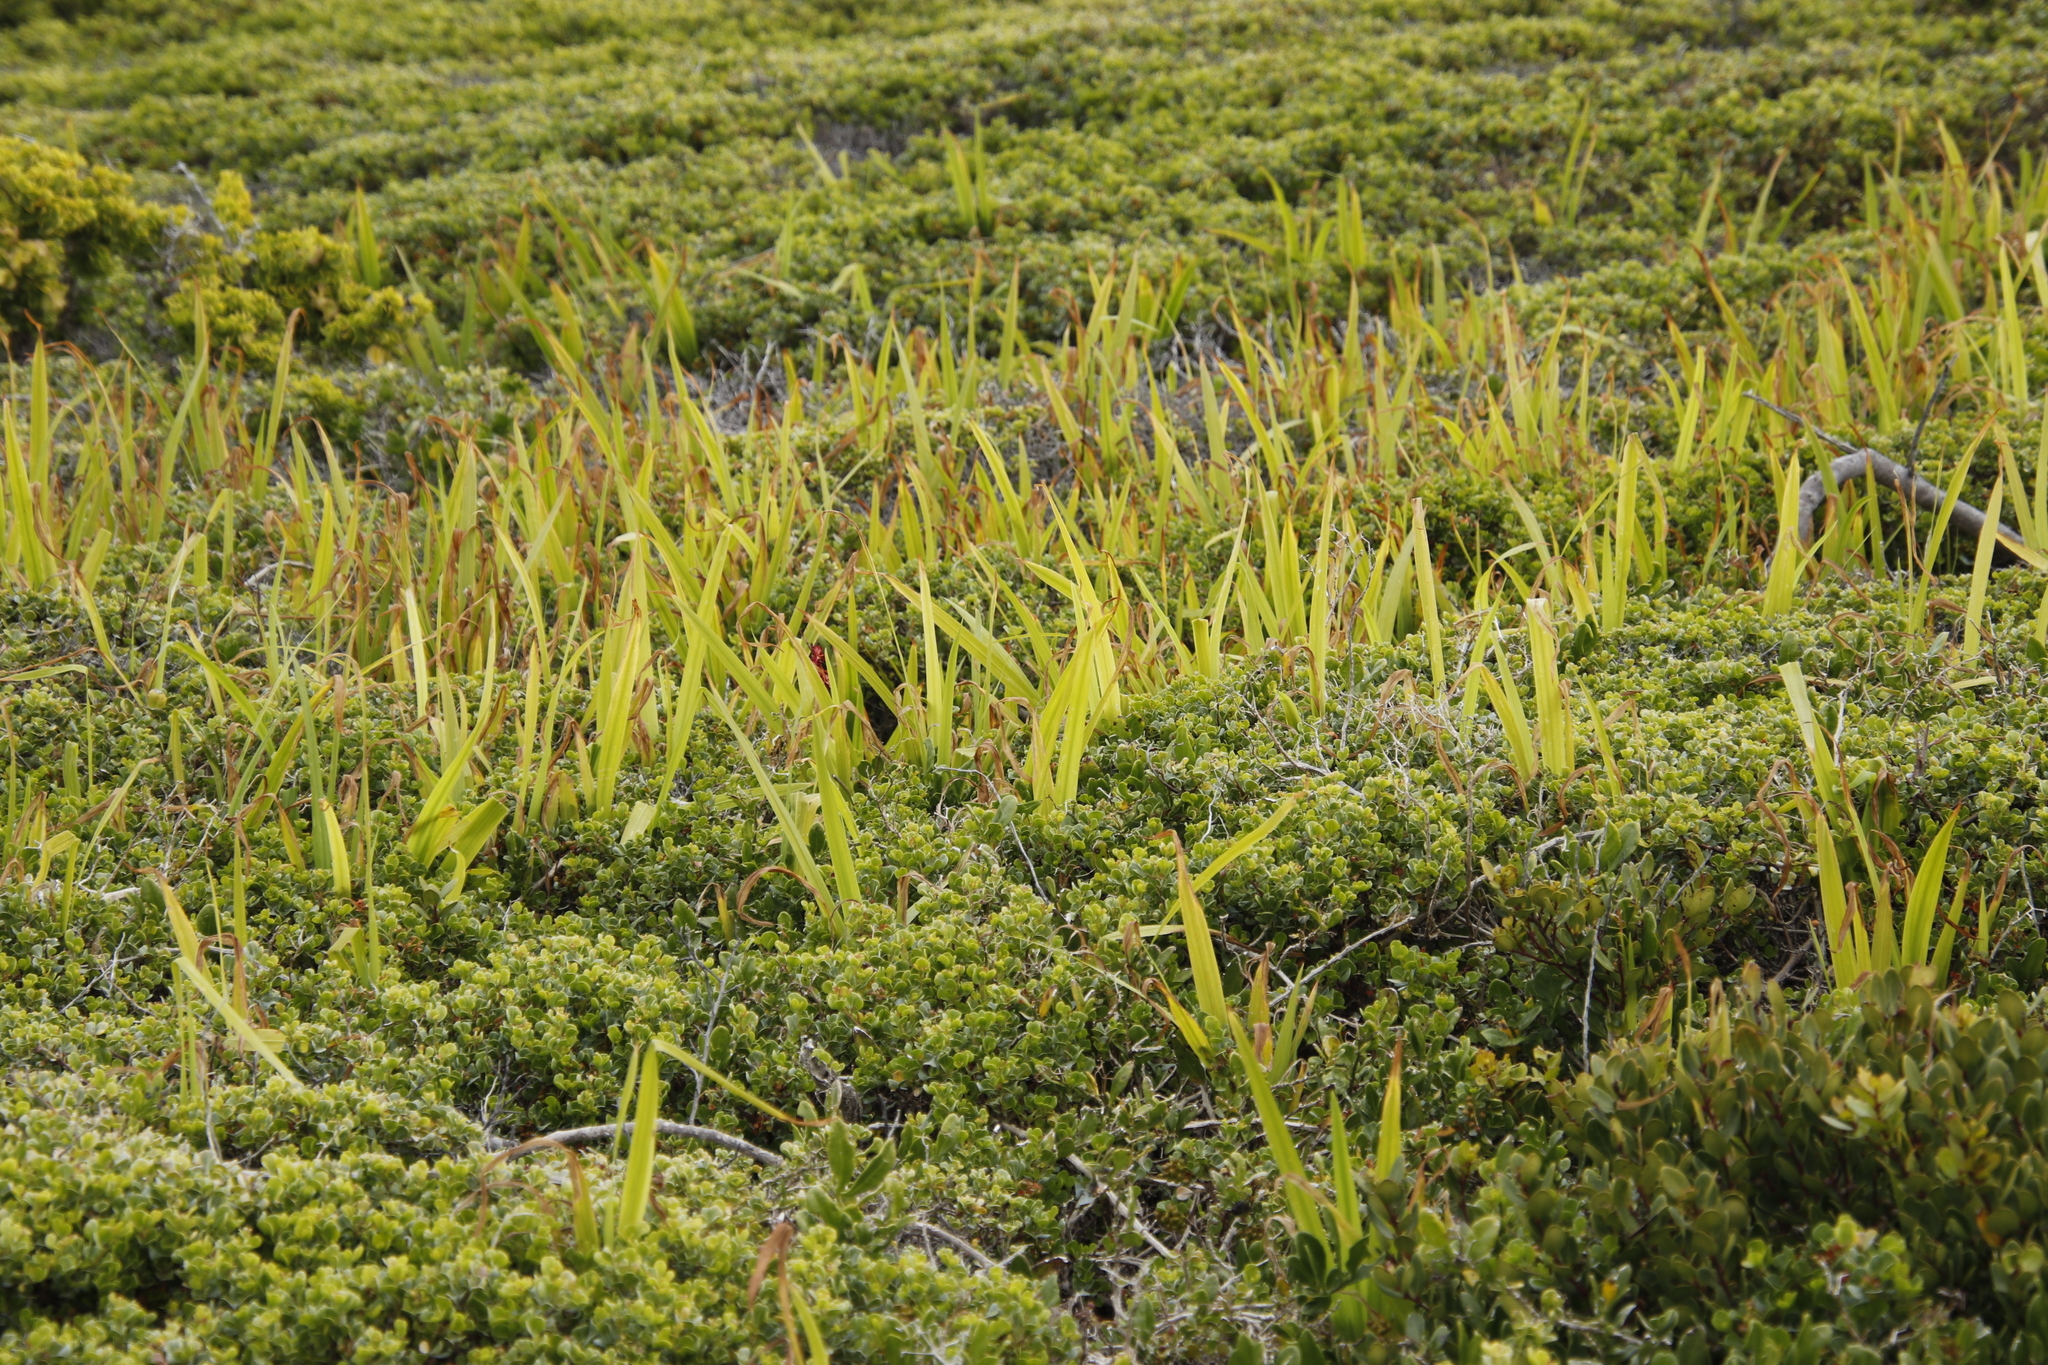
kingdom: Plantae
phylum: Tracheophyta
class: Liliopsida
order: Asparagales
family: Iridaceae
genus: Chasmanthe
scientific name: Chasmanthe aethiopica
